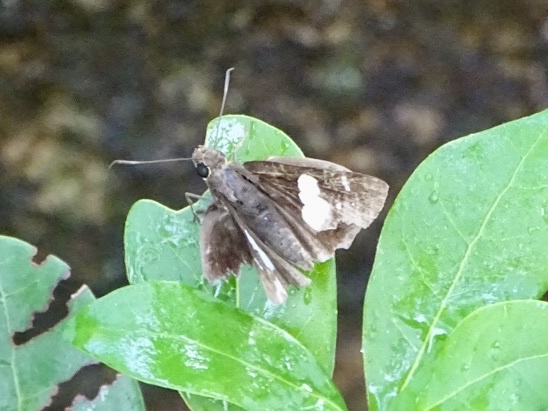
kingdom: Animalia
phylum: Arthropoda
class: Insecta
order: Lepidoptera
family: Hesperiidae
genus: Notocrypta
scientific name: Notocrypta curvifascia
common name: Restricted demon
